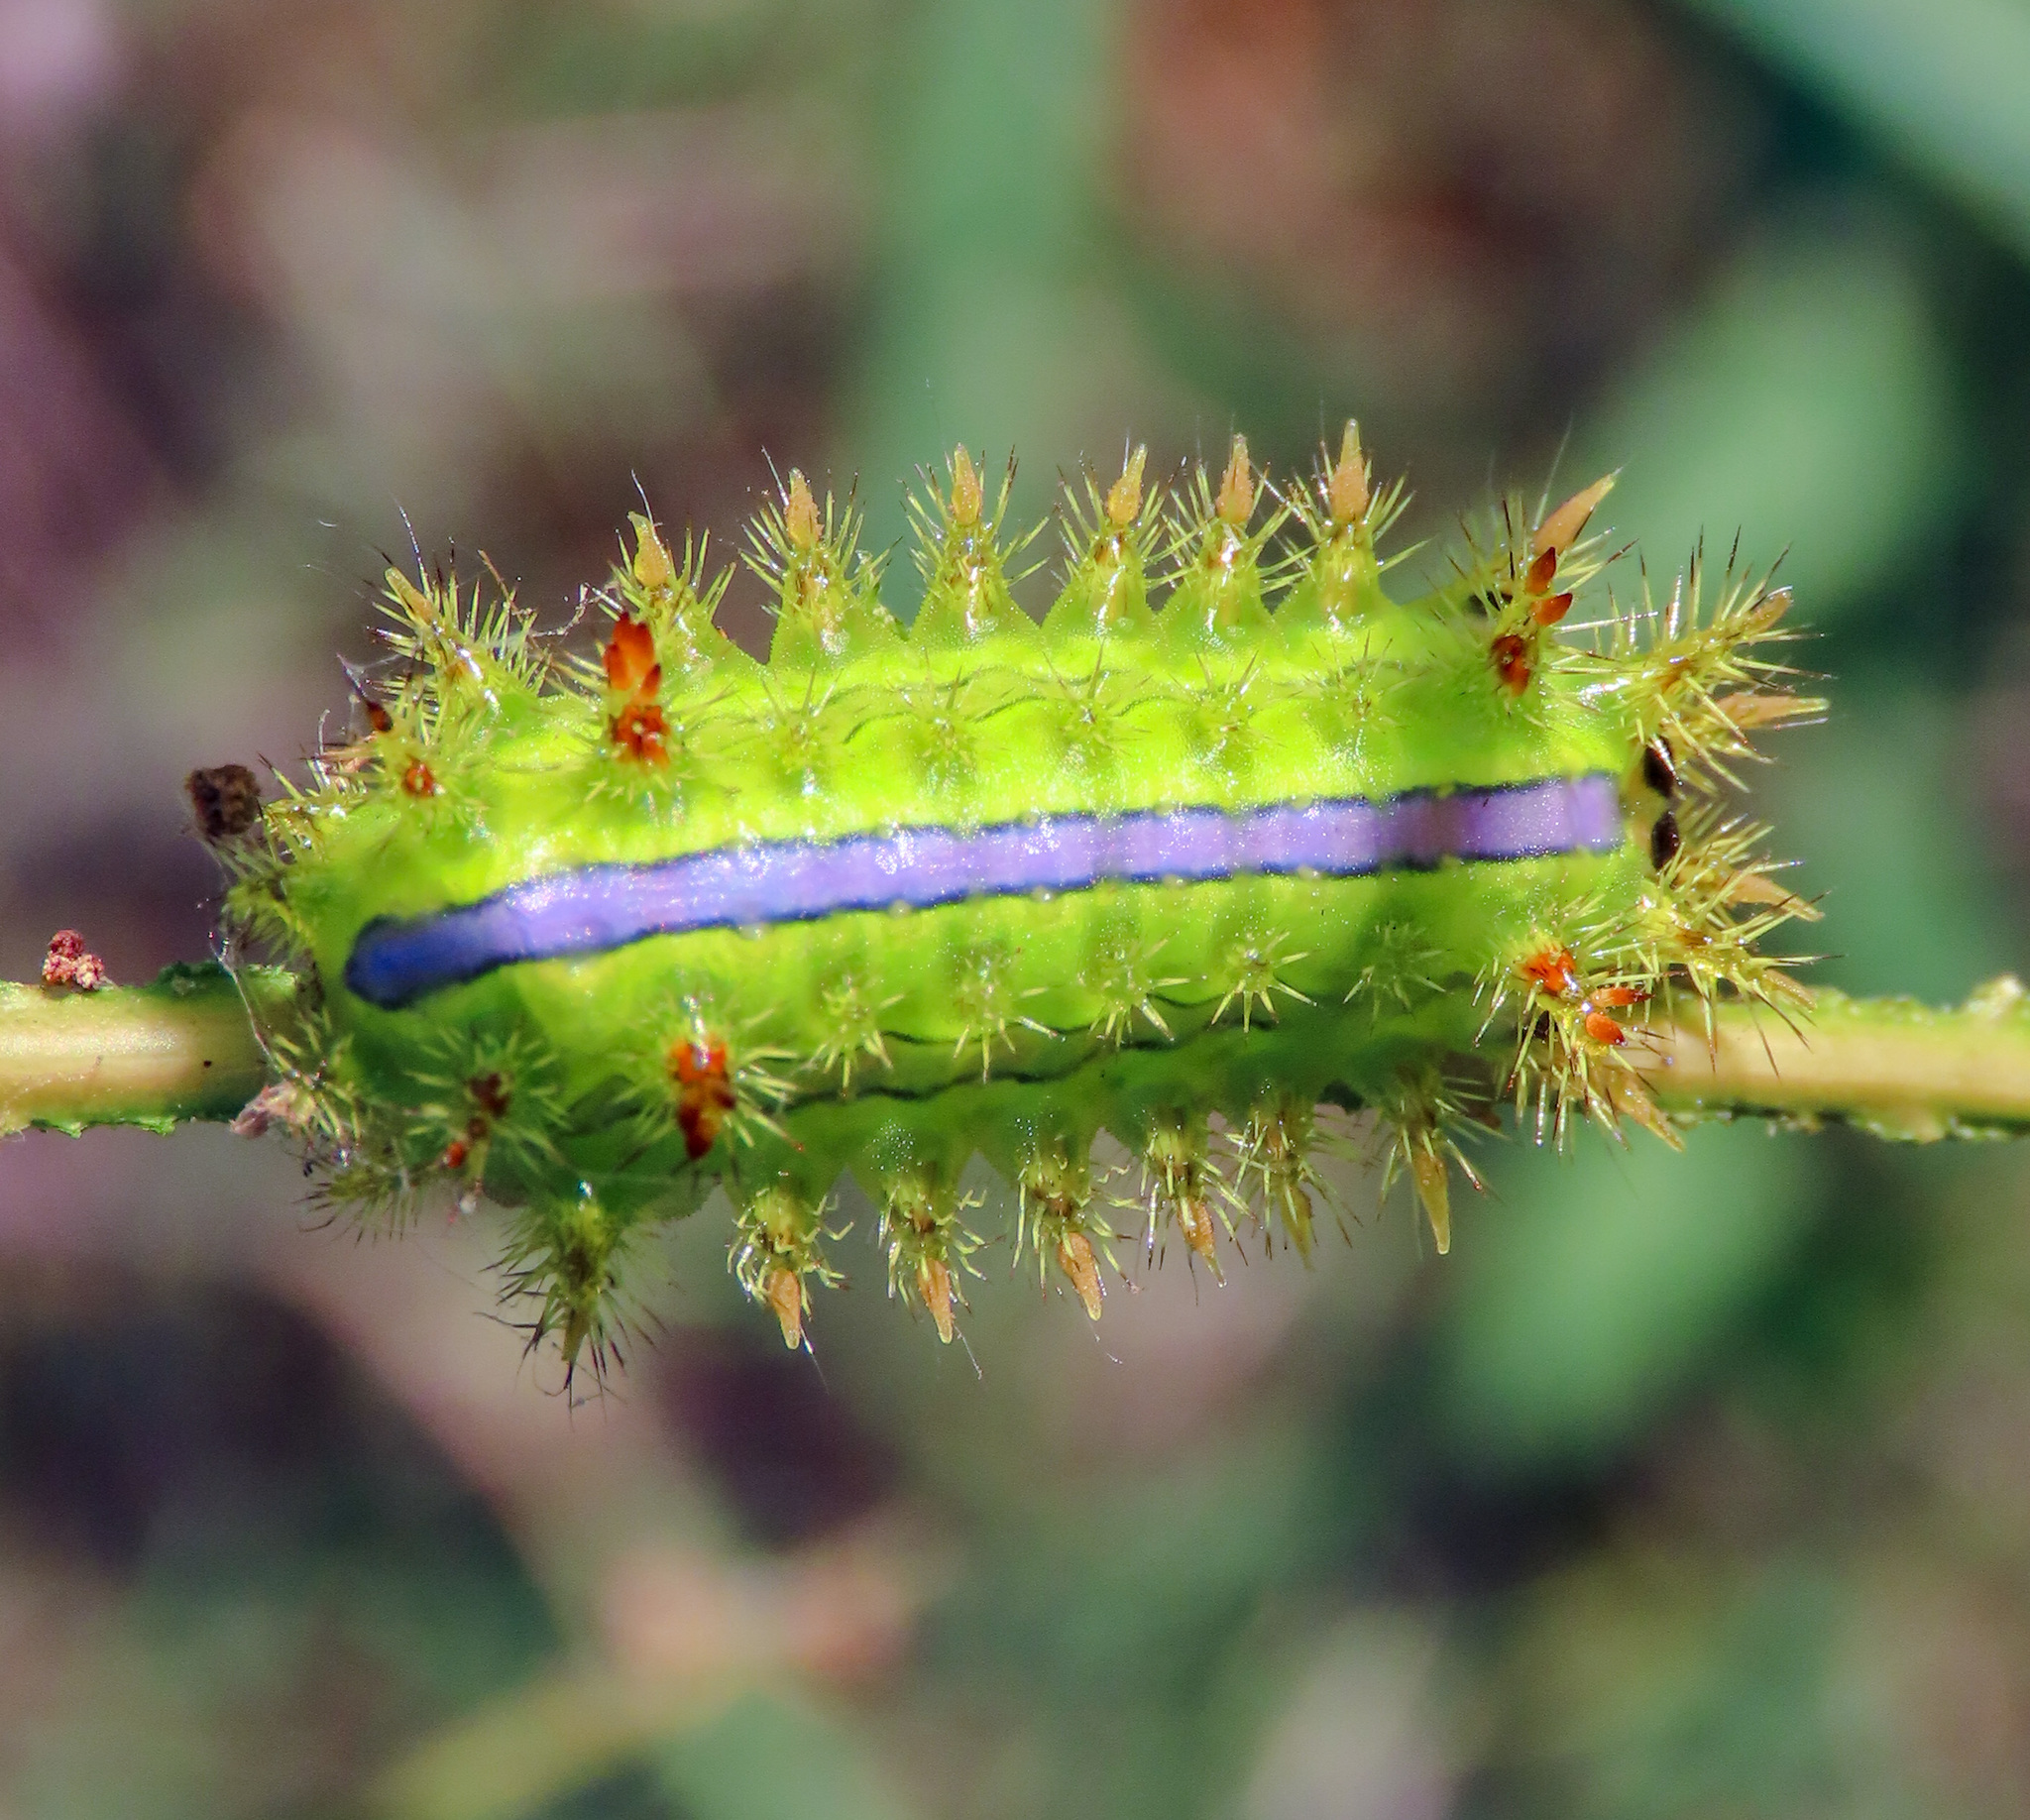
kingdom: Animalia
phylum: Arthropoda
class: Insecta
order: Lepidoptera
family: Limacodidae
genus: Parasa
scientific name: Parasa lepida
